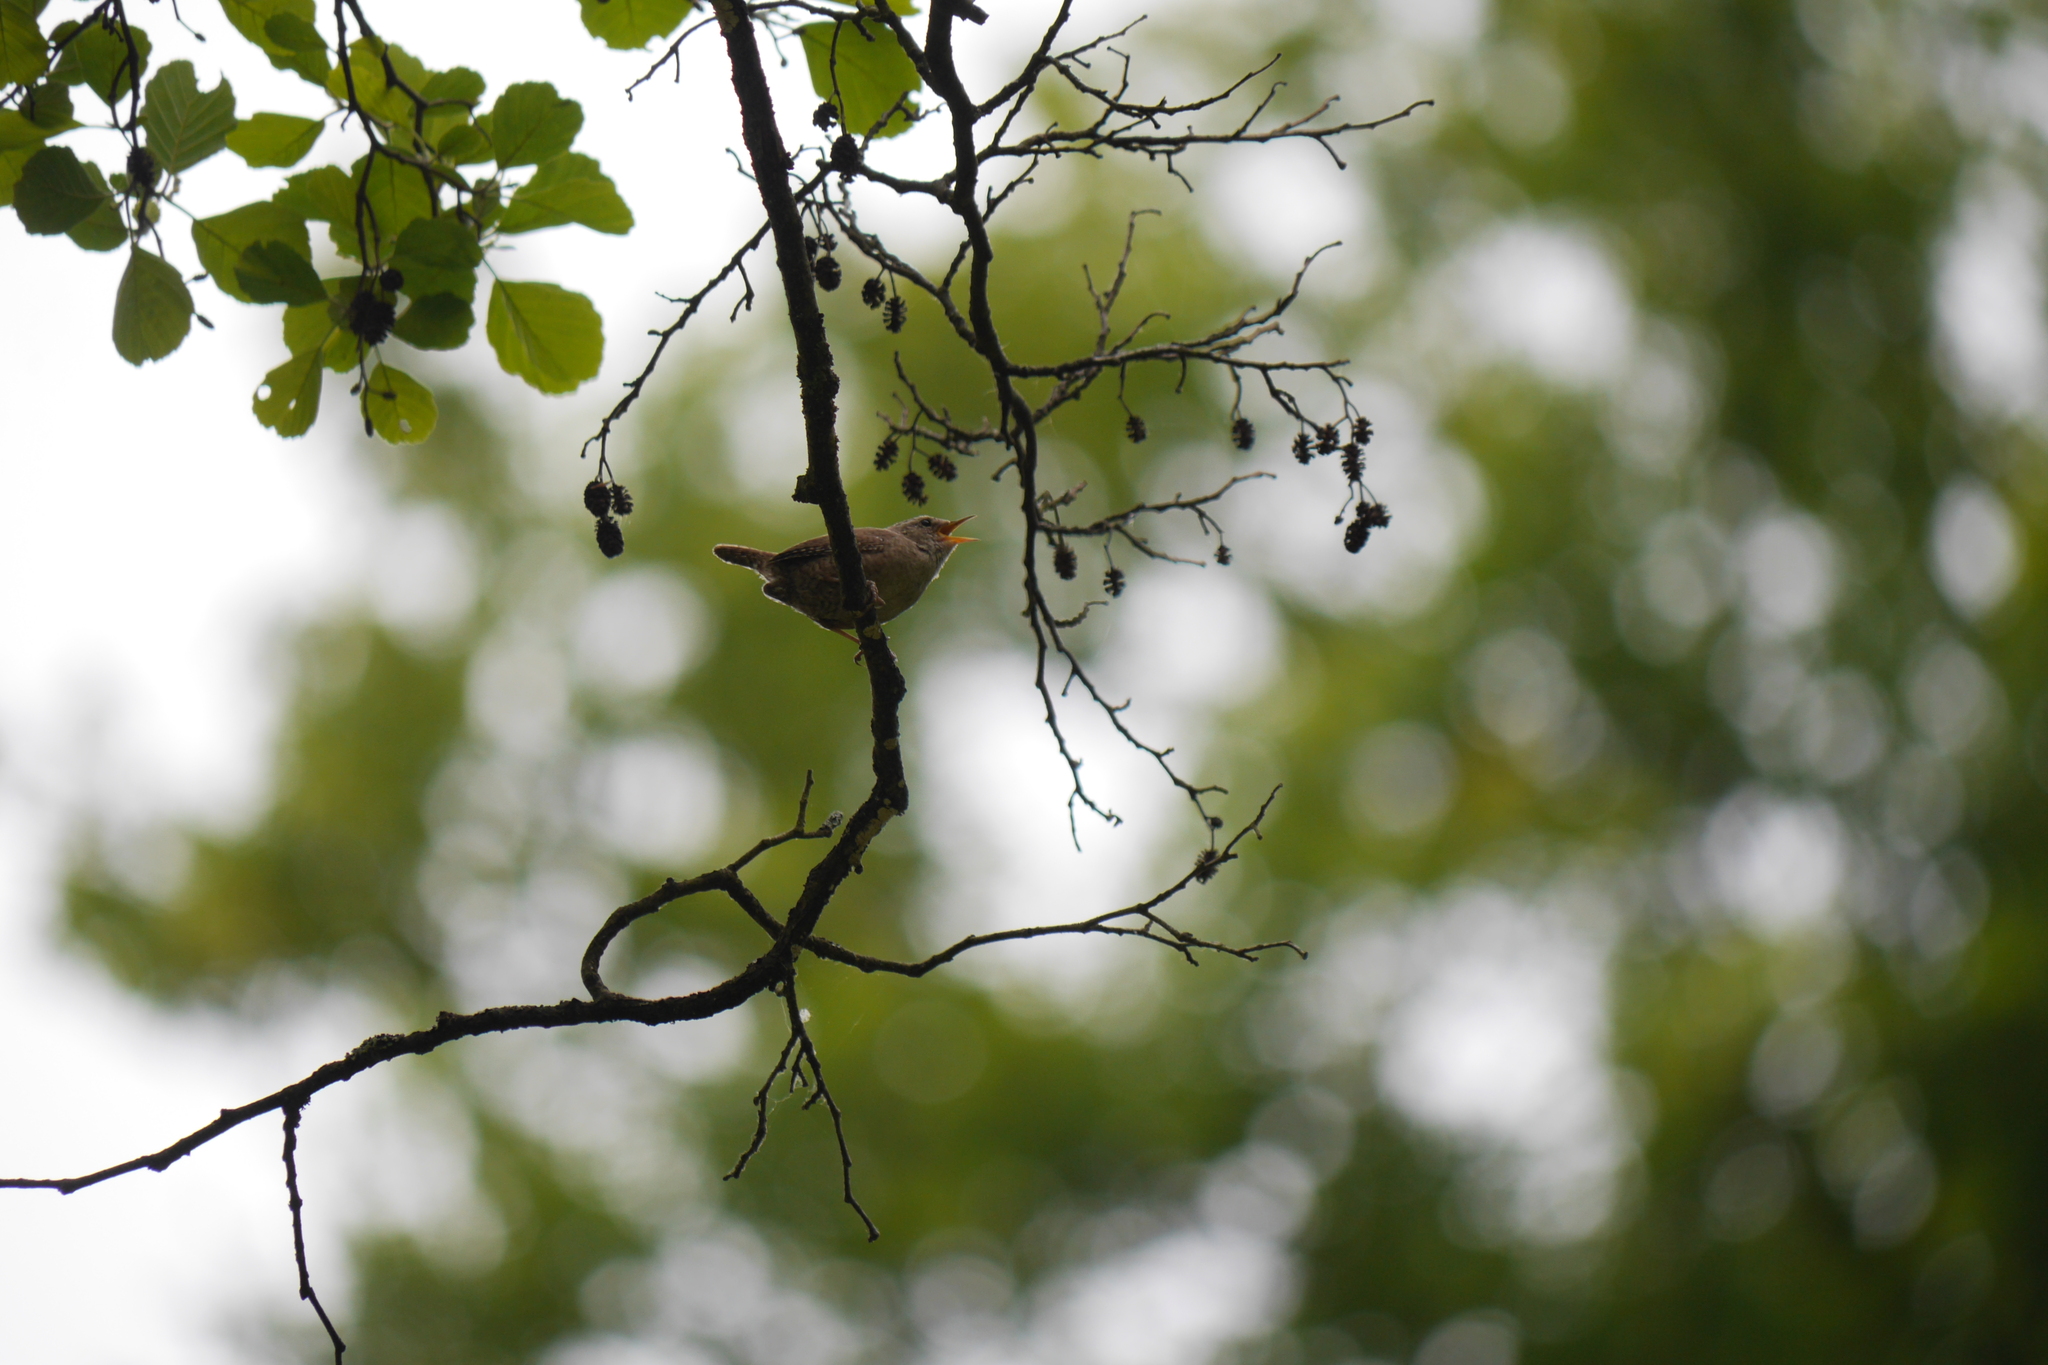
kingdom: Animalia
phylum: Chordata
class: Aves
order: Passeriformes
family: Troglodytidae
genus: Troglodytes
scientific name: Troglodytes troglodytes
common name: Eurasian wren
